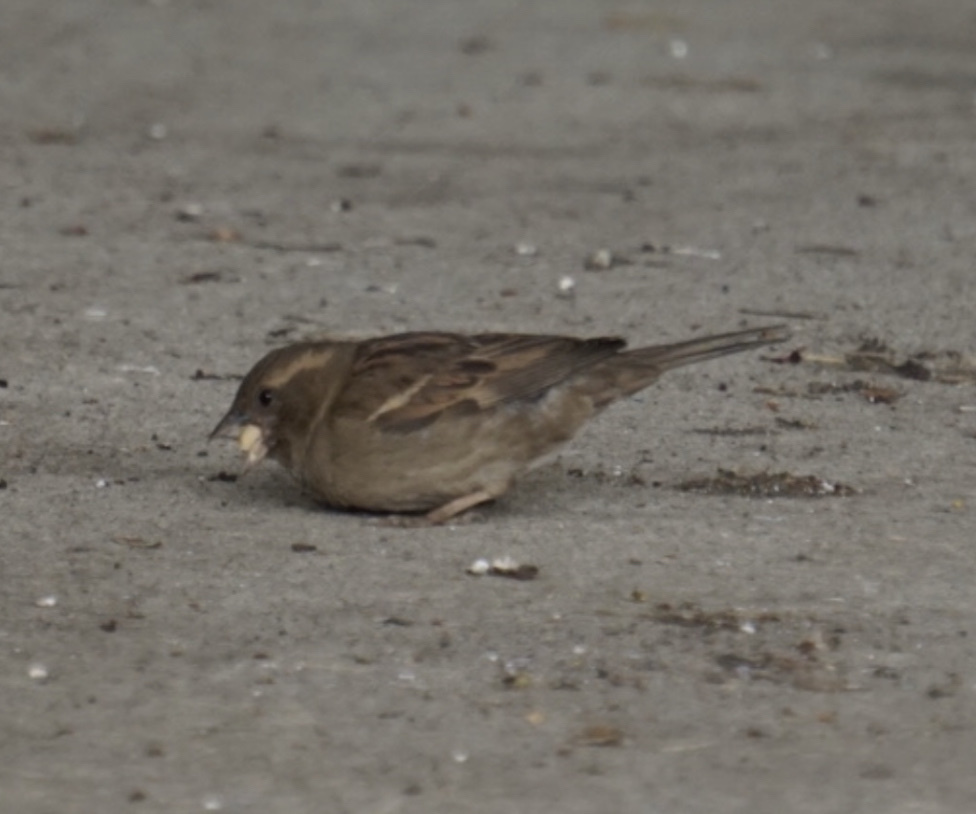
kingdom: Animalia
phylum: Chordata
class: Aves
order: Passeriformes
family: Passeridae
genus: Passer
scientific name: Passer domesticus
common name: House sparrow
